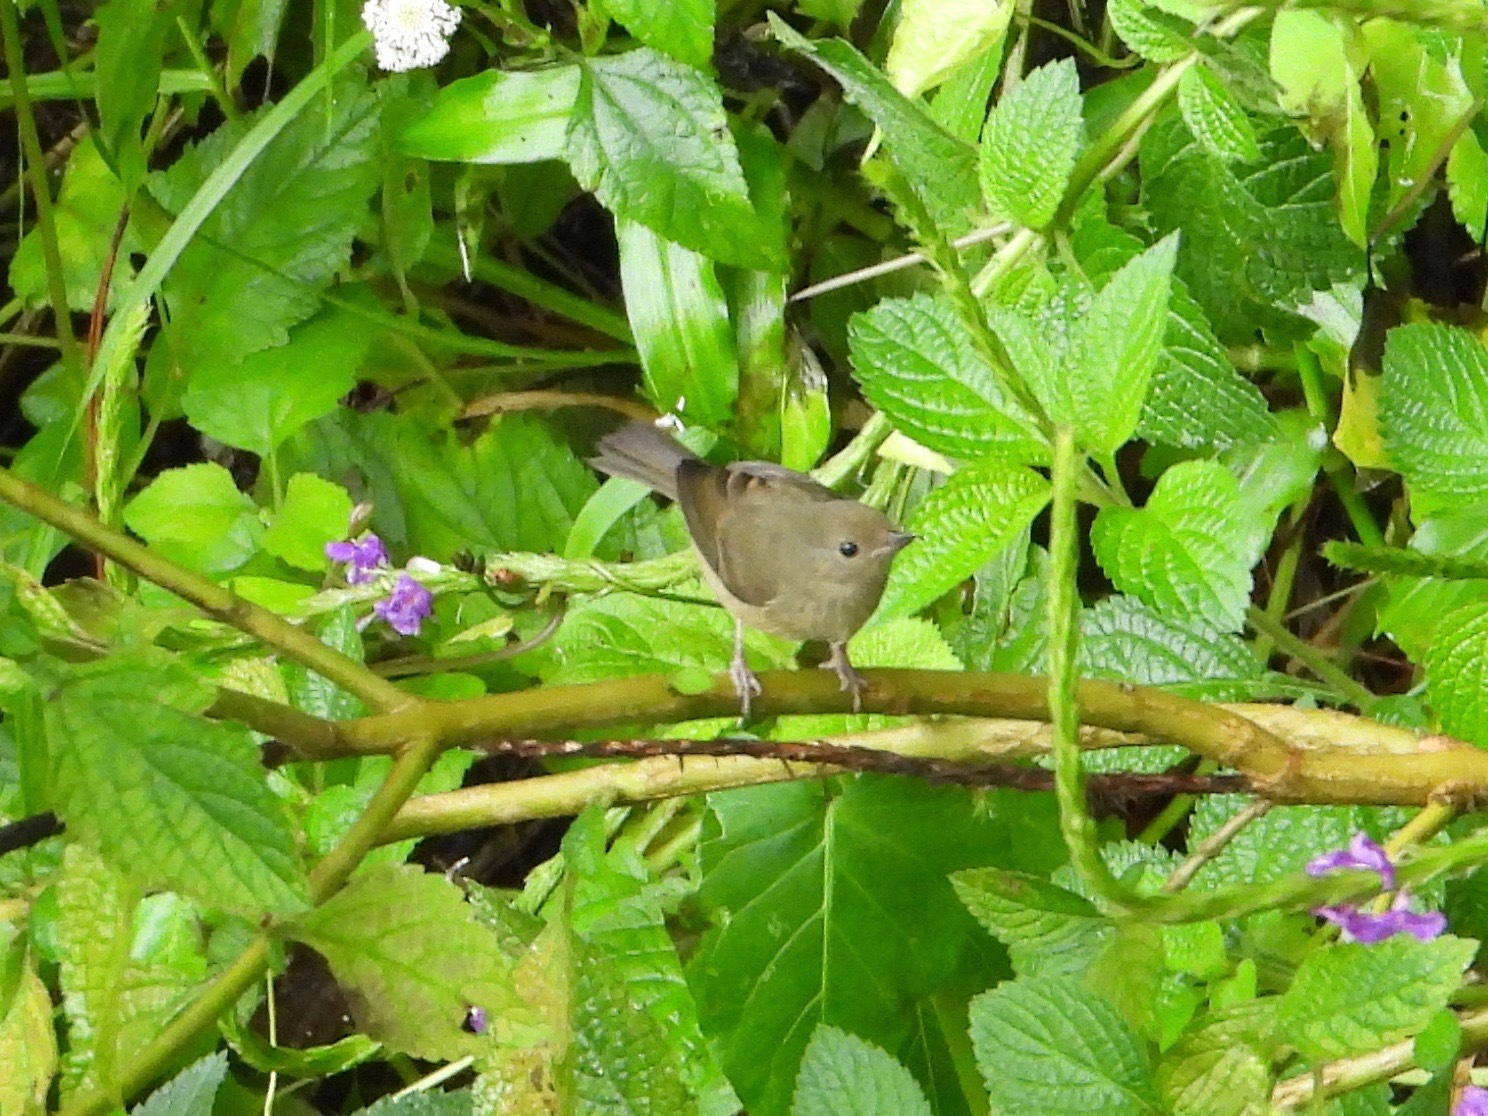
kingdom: Animalia
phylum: Chordata
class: Aves
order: Passeriformes
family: Thraupidae
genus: Diglossa
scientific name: Diglossa baritula
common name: Cinnamon-bellied flowerpiercer
